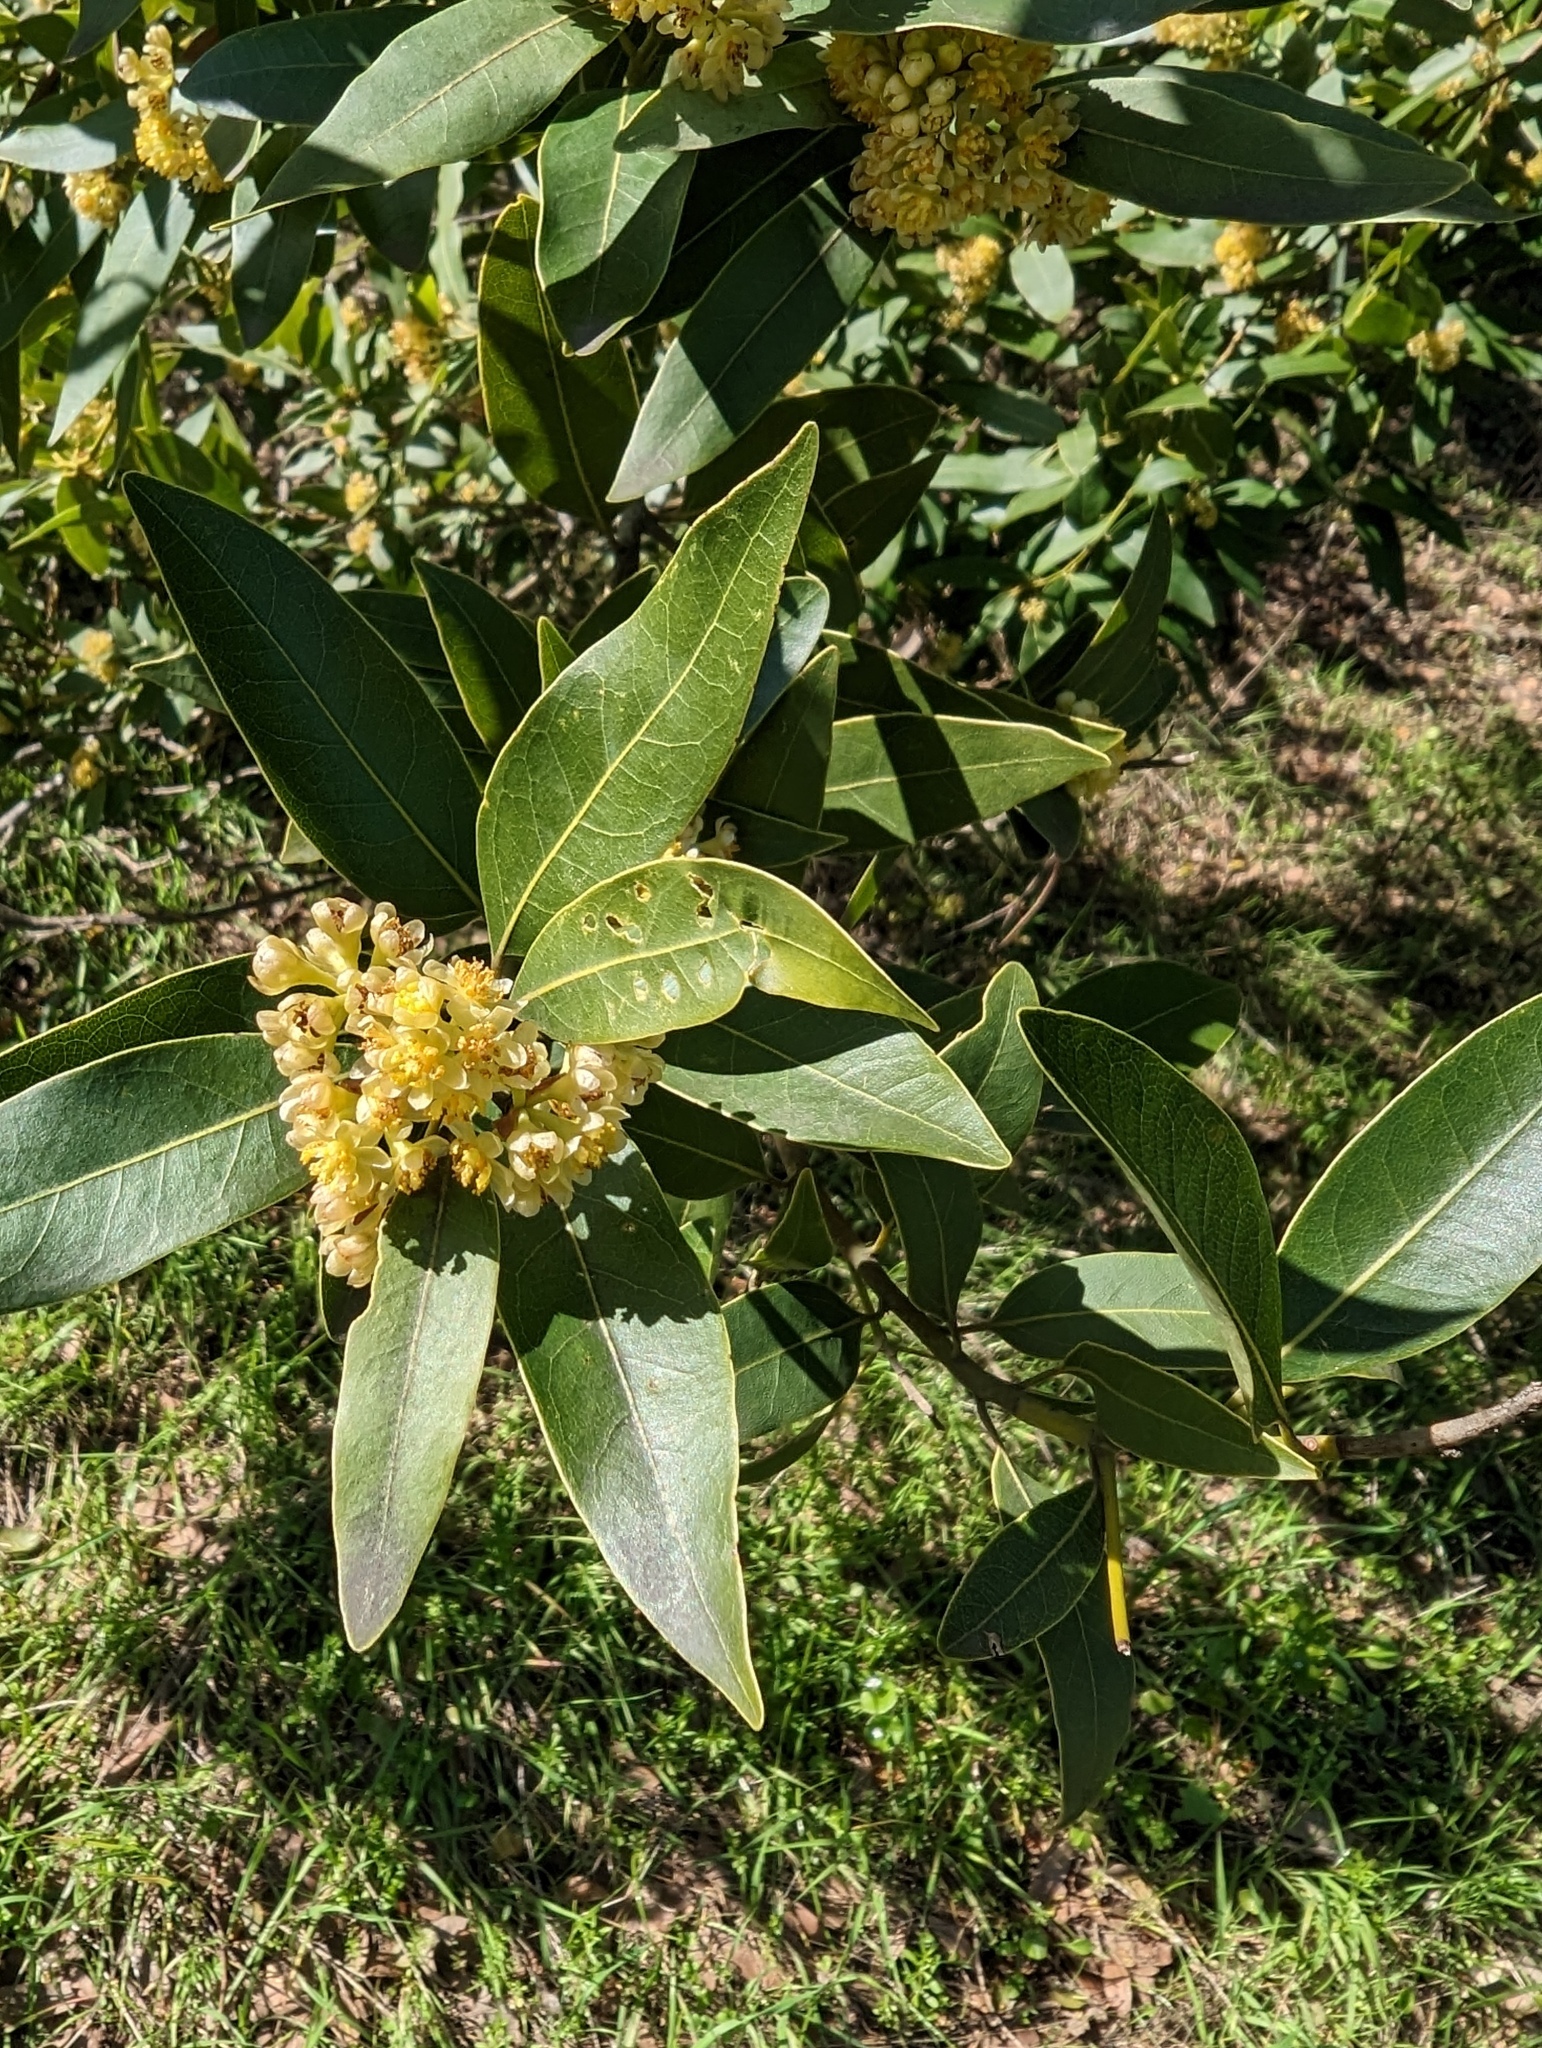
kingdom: Plantae
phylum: Tracheophyta
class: Magnoliopsida
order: Laurales
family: Lauraceae
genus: Umbellularia
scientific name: Umbellularia californica
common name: California bay
